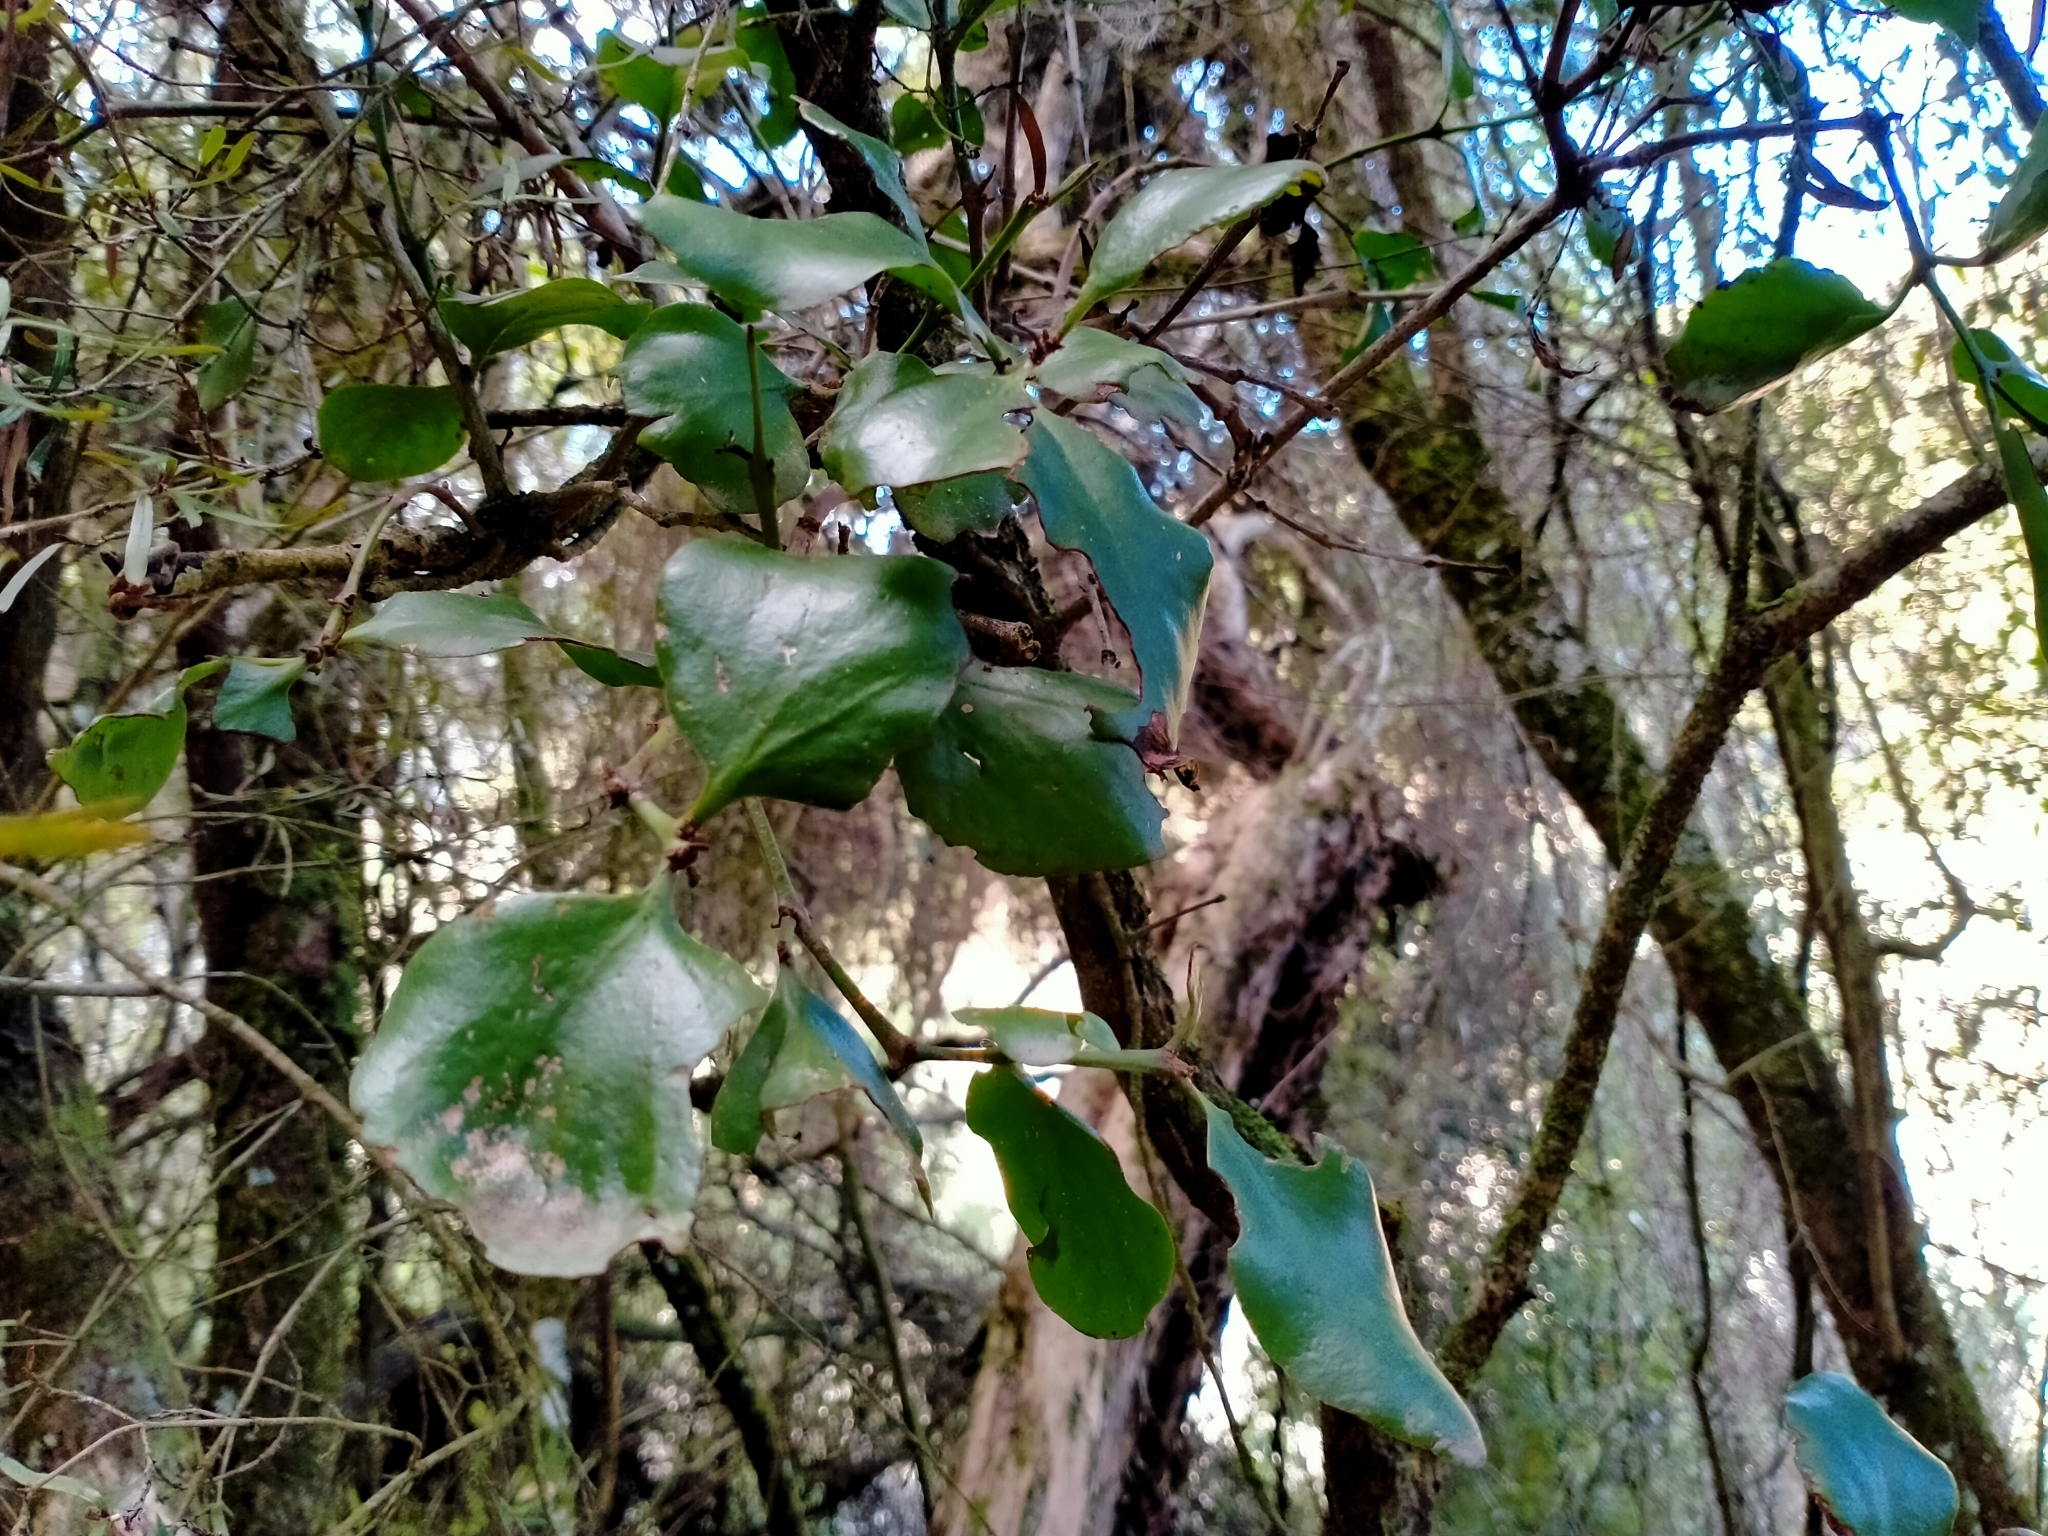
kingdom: Plantae
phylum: Tracheophyta
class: Magnoliopsida
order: Santalales
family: Loranthaceae
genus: Ileostylus
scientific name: Ileostylus micranthus
